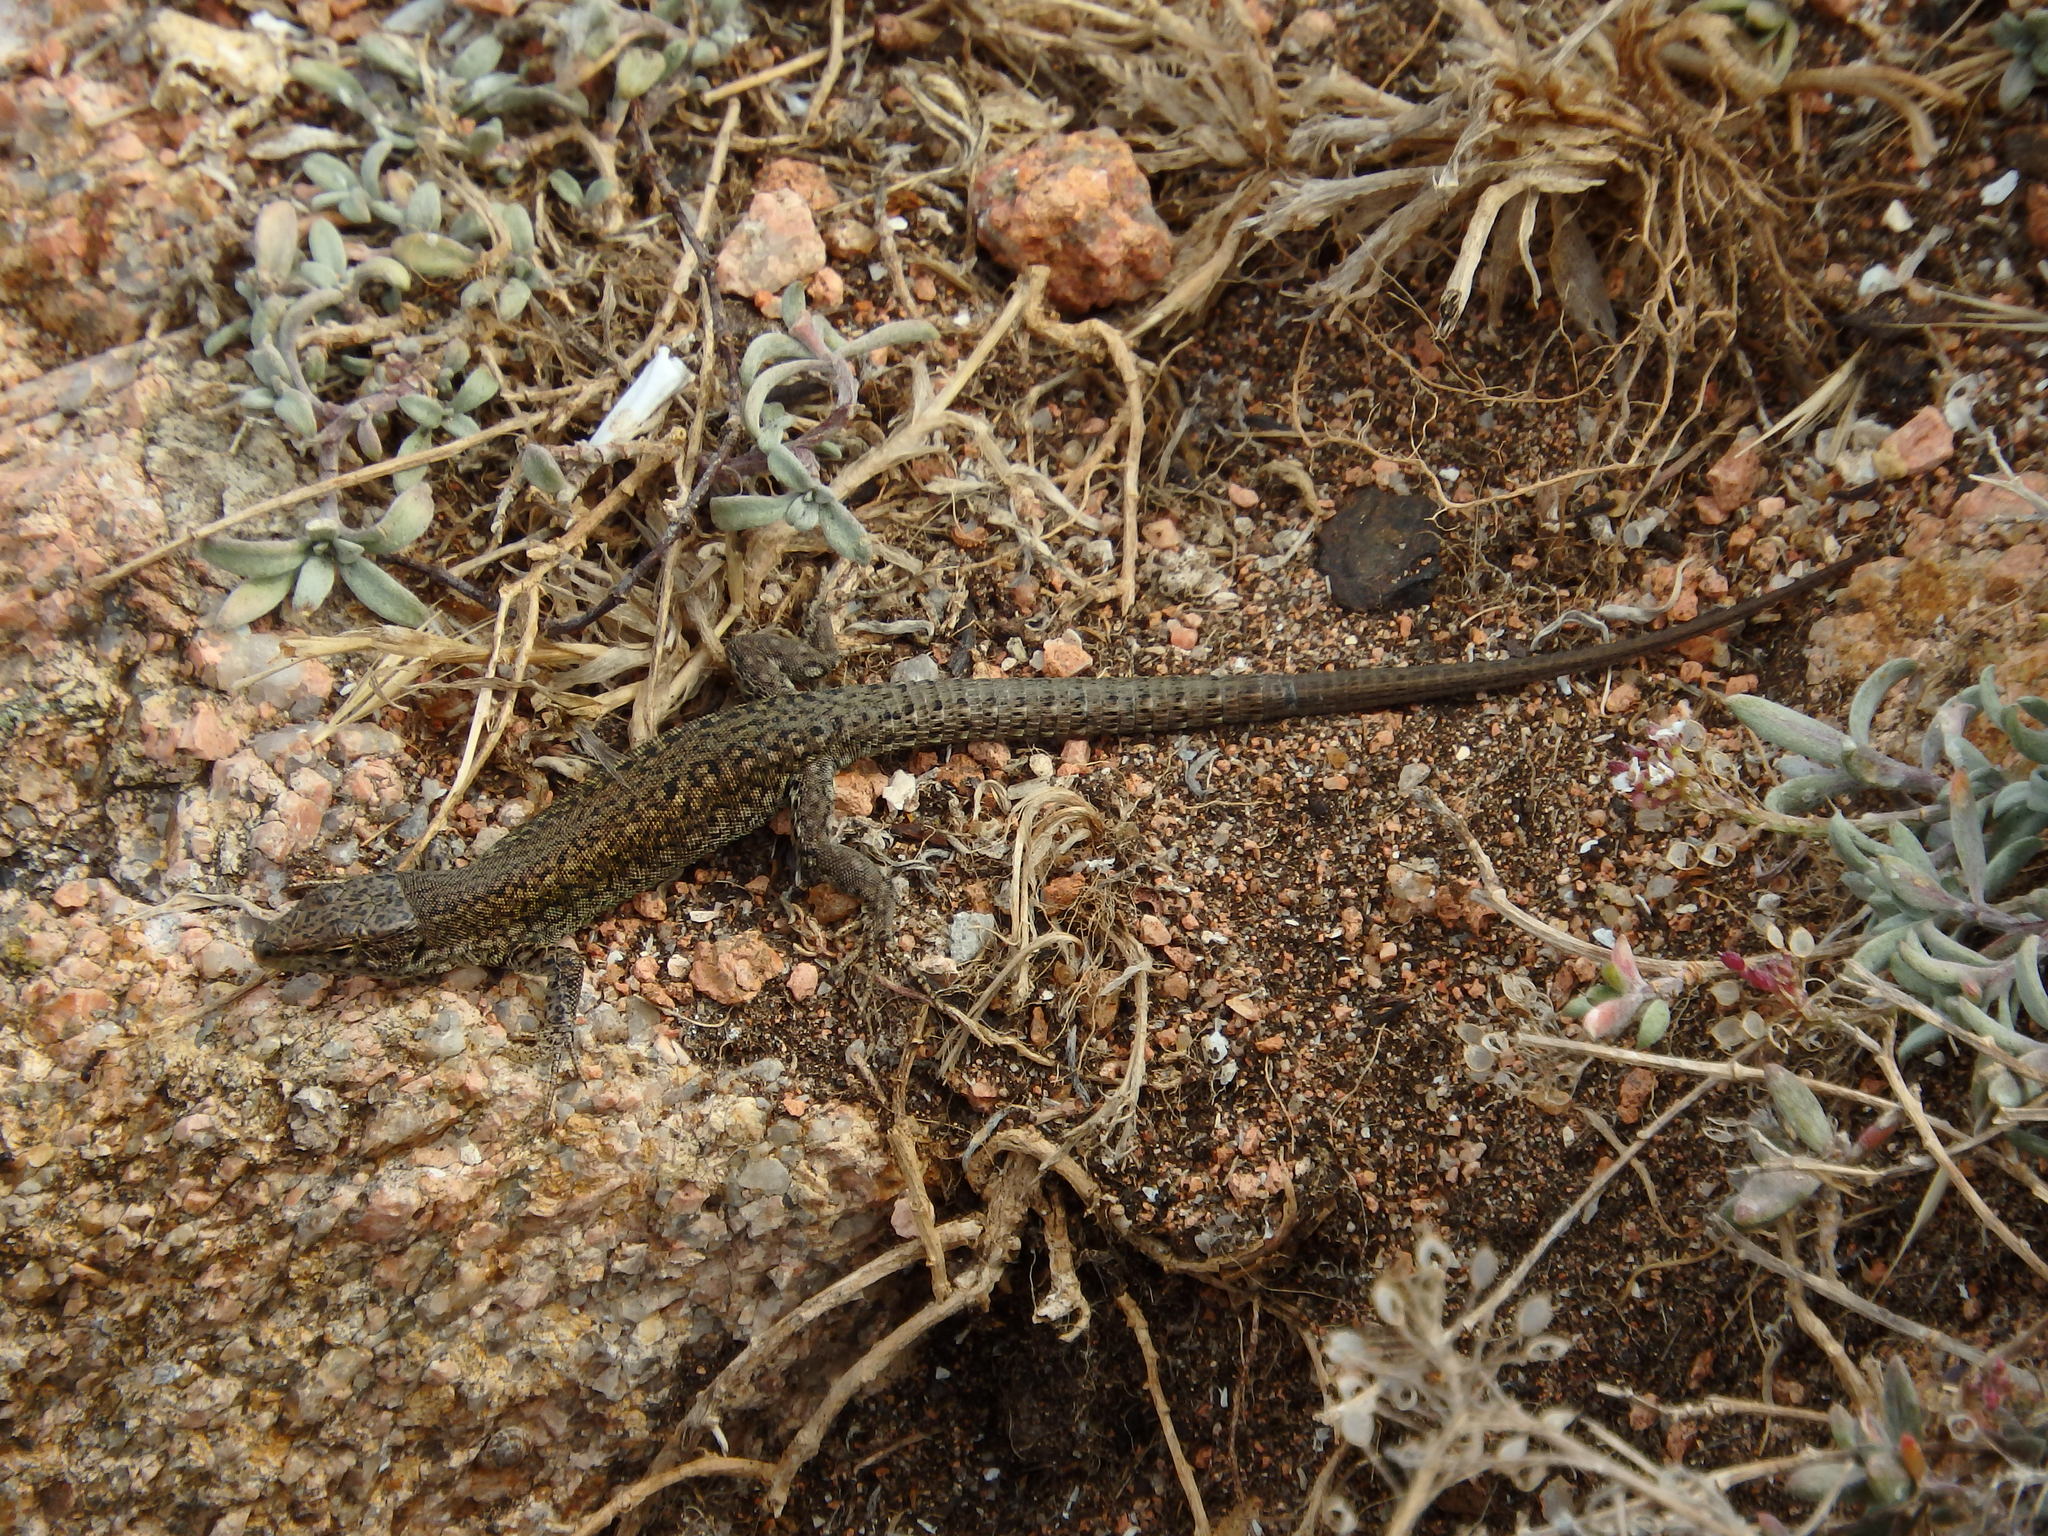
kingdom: Animalia
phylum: Chordata
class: Squamata
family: Lacertidae
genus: Podarcis
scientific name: Podarcis carbonelli
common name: Carbonelli's wall lizard
